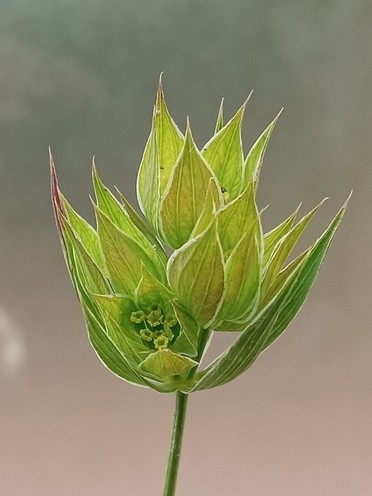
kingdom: Plantae
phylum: Tracheophyta
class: Magnoliopsida
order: Apiales
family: Apiaceae
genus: Bupleurum
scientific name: Bupleurum baldense
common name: Small hare's-ear
